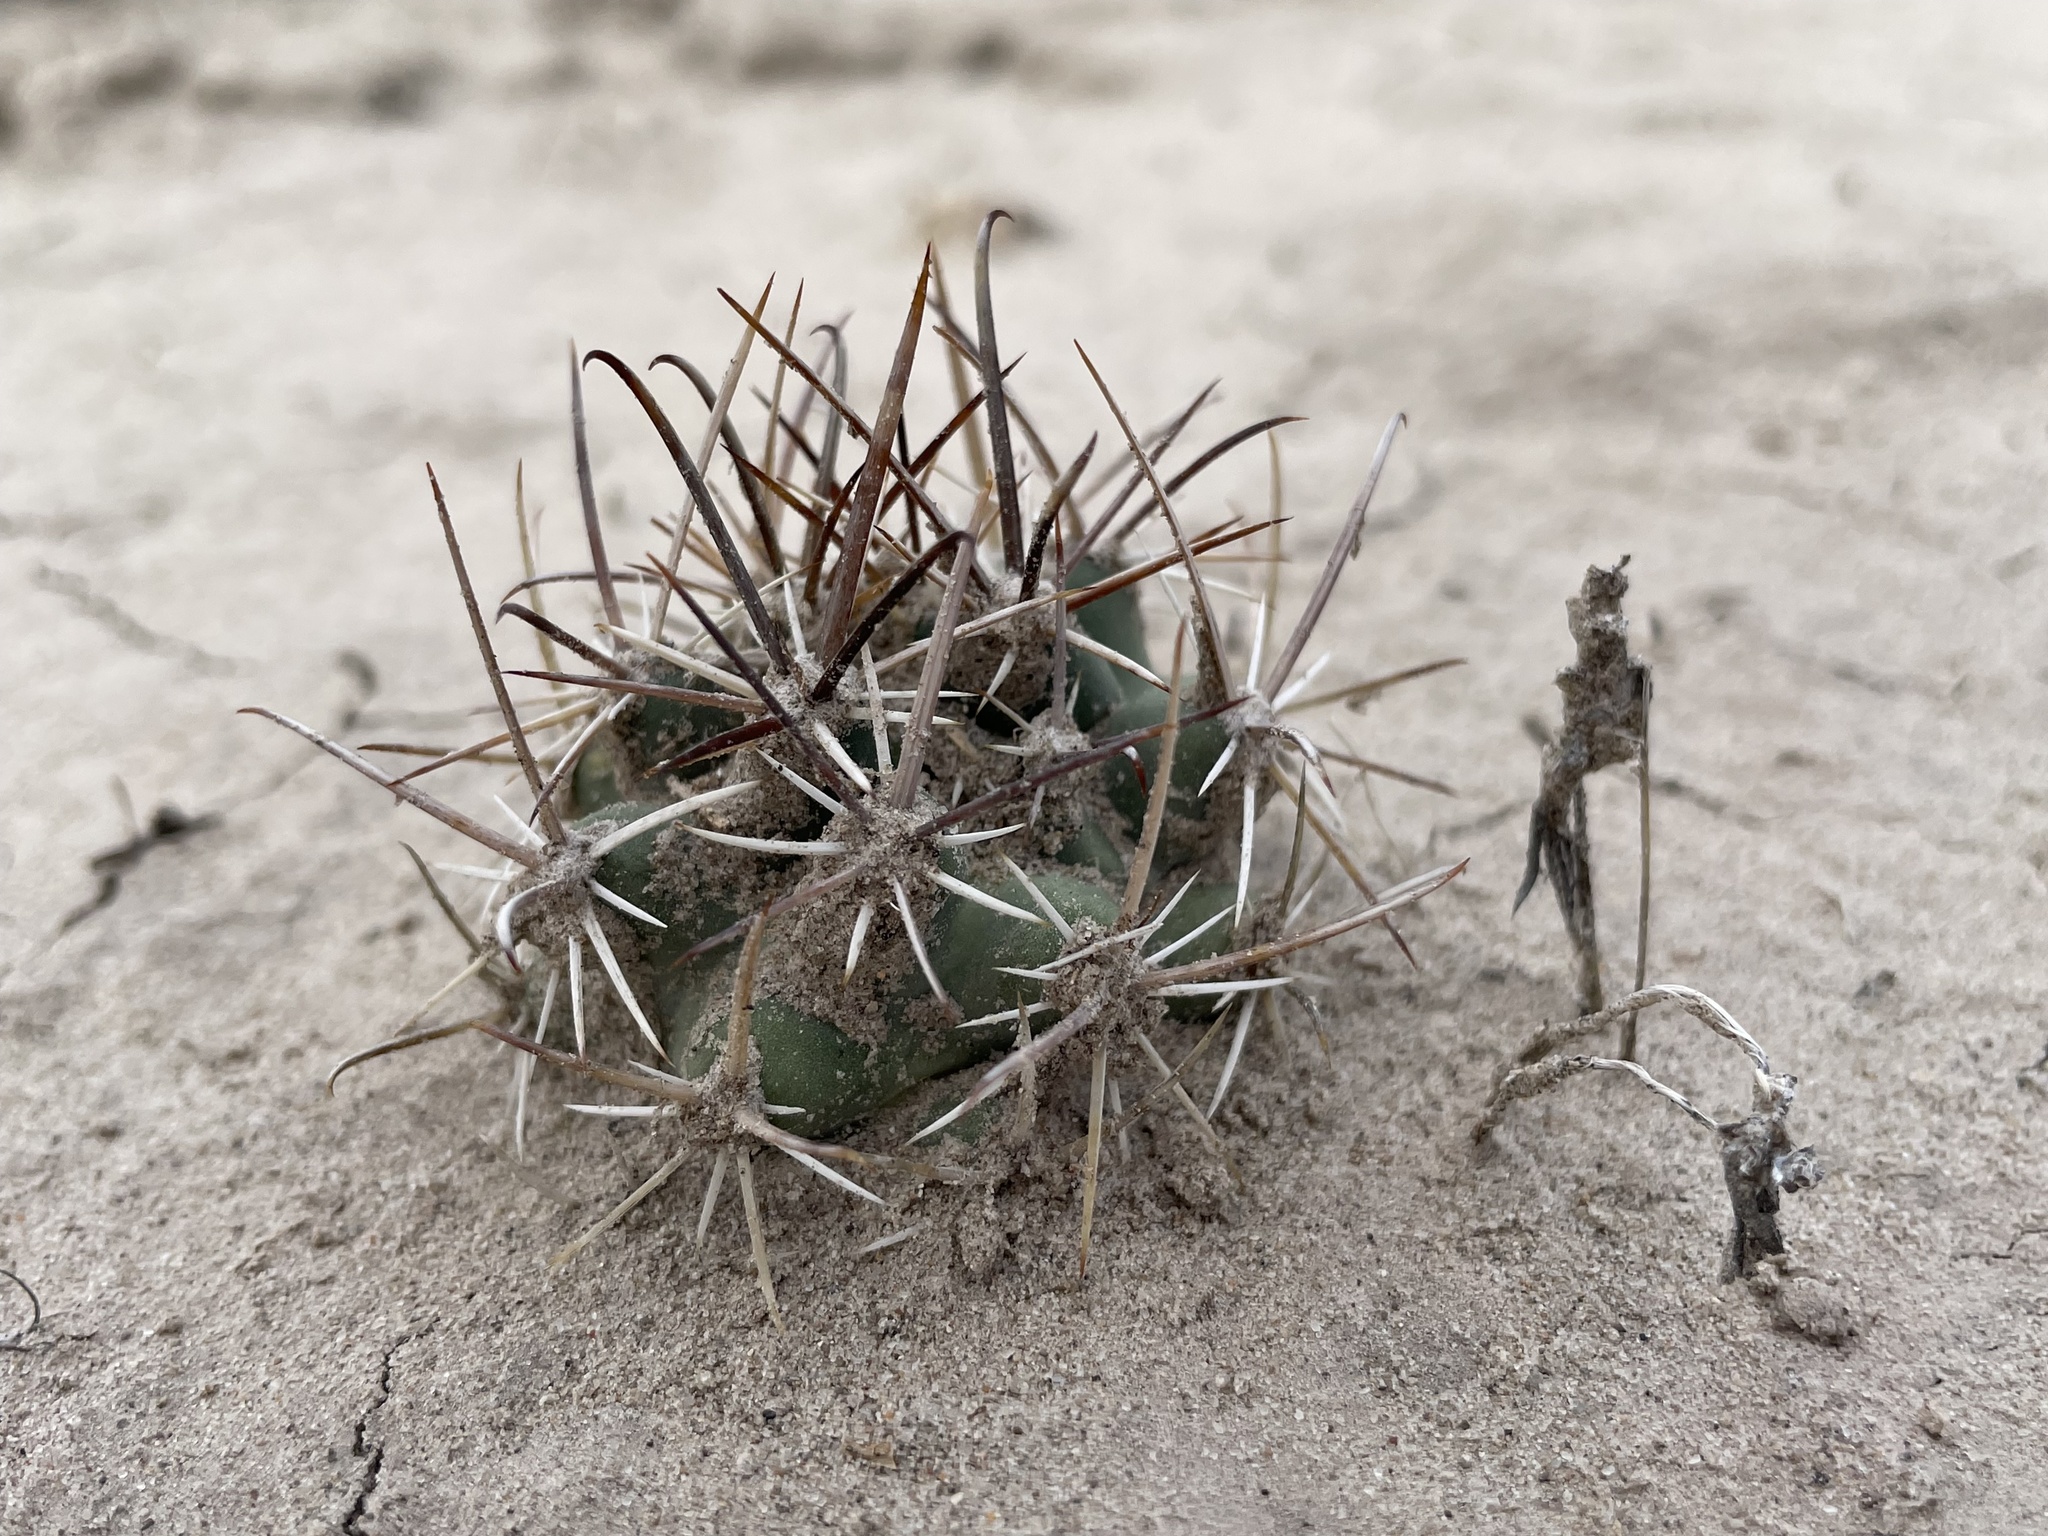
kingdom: Plantae
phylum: Tracheophyta
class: Magnoliopsida
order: Caryophyllales
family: Cactaceae
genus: Sclerocactus
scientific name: Sclerocactus cloverae
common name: Clover's eagle-claw cactus
